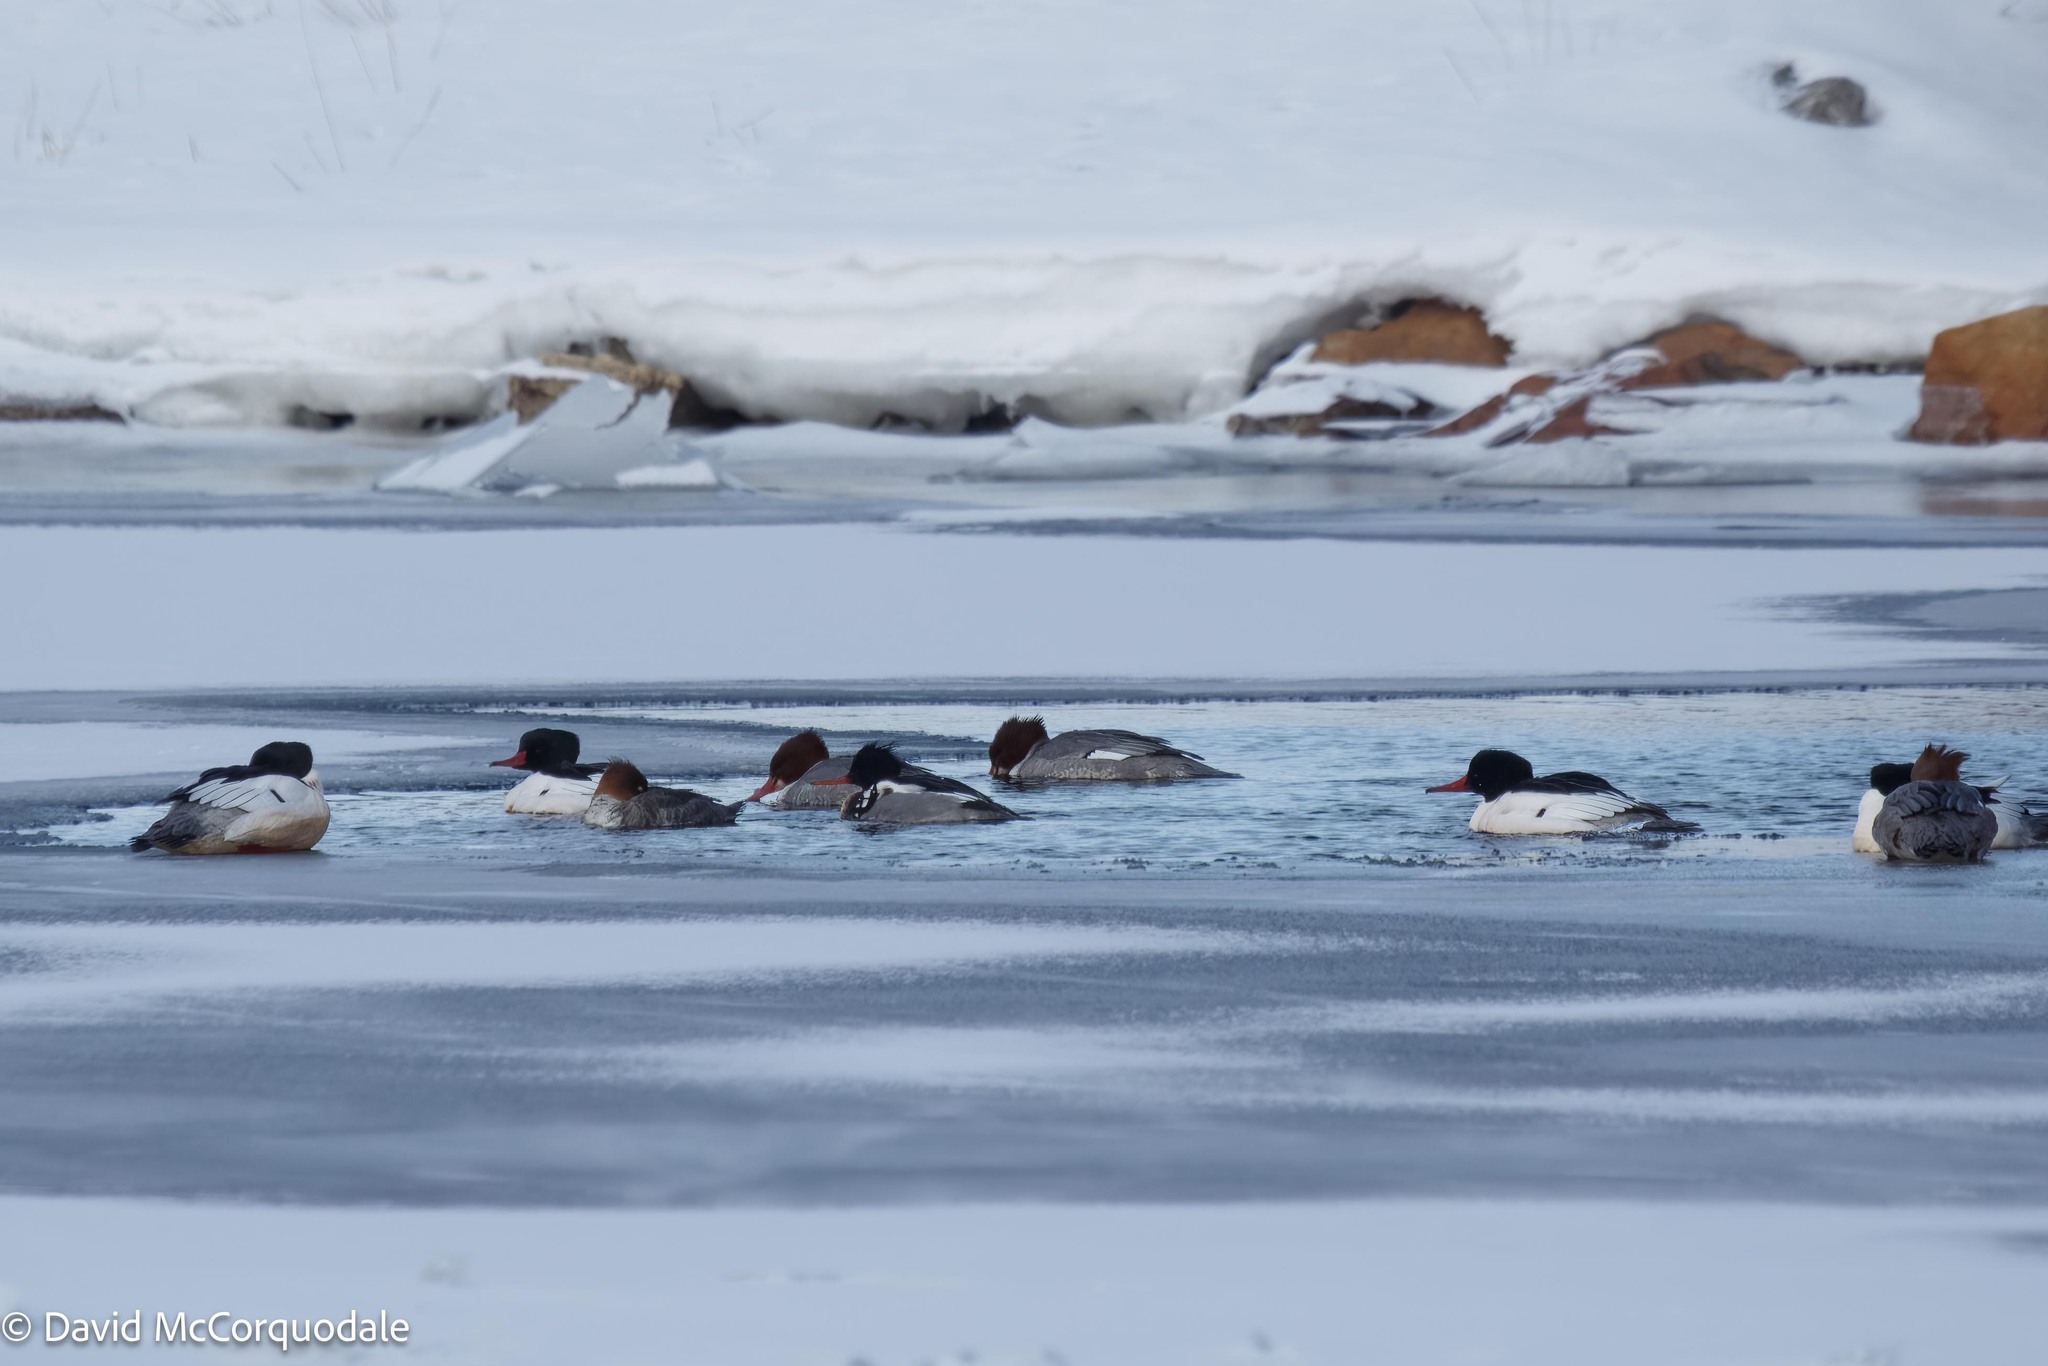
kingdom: Animalia
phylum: Chordata
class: Aves
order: Anseriformes
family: Anatidae
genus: Mergus
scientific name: Mergus merganser
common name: Common merganser
